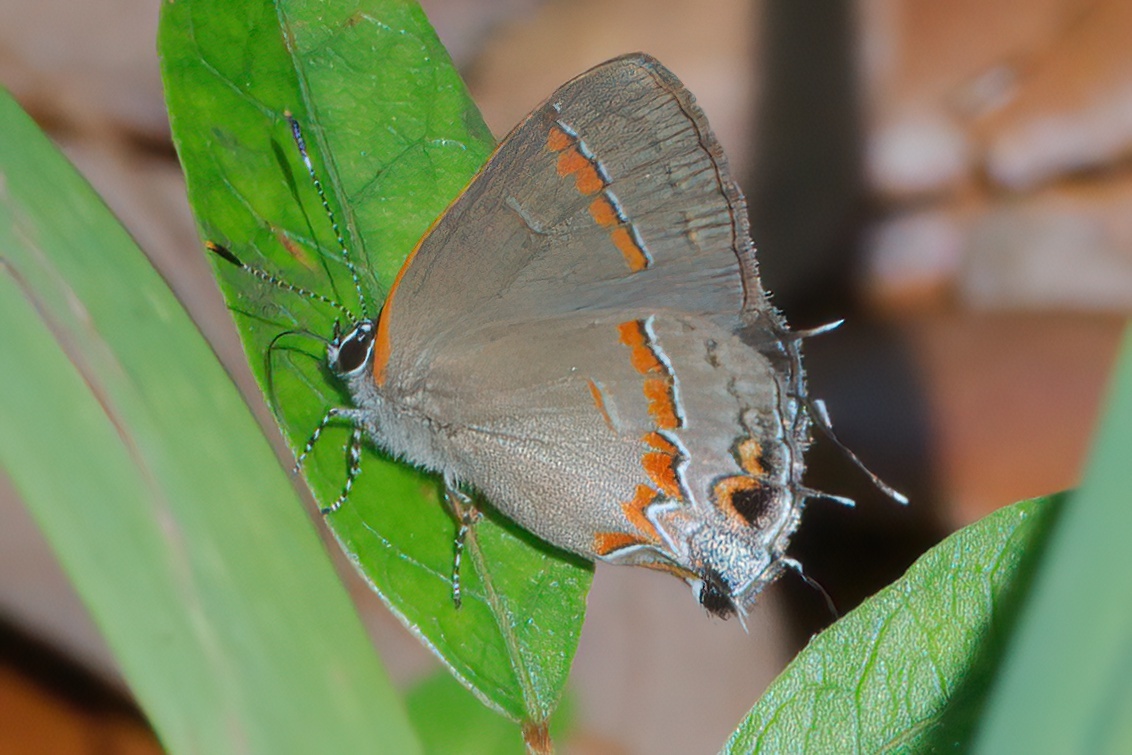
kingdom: Animalia
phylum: Arthropoda
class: Insecta
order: Lepidoptera
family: Lycaenidae
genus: Calycopis
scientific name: Calycopis cecrops
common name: Red-banded hairstreak
